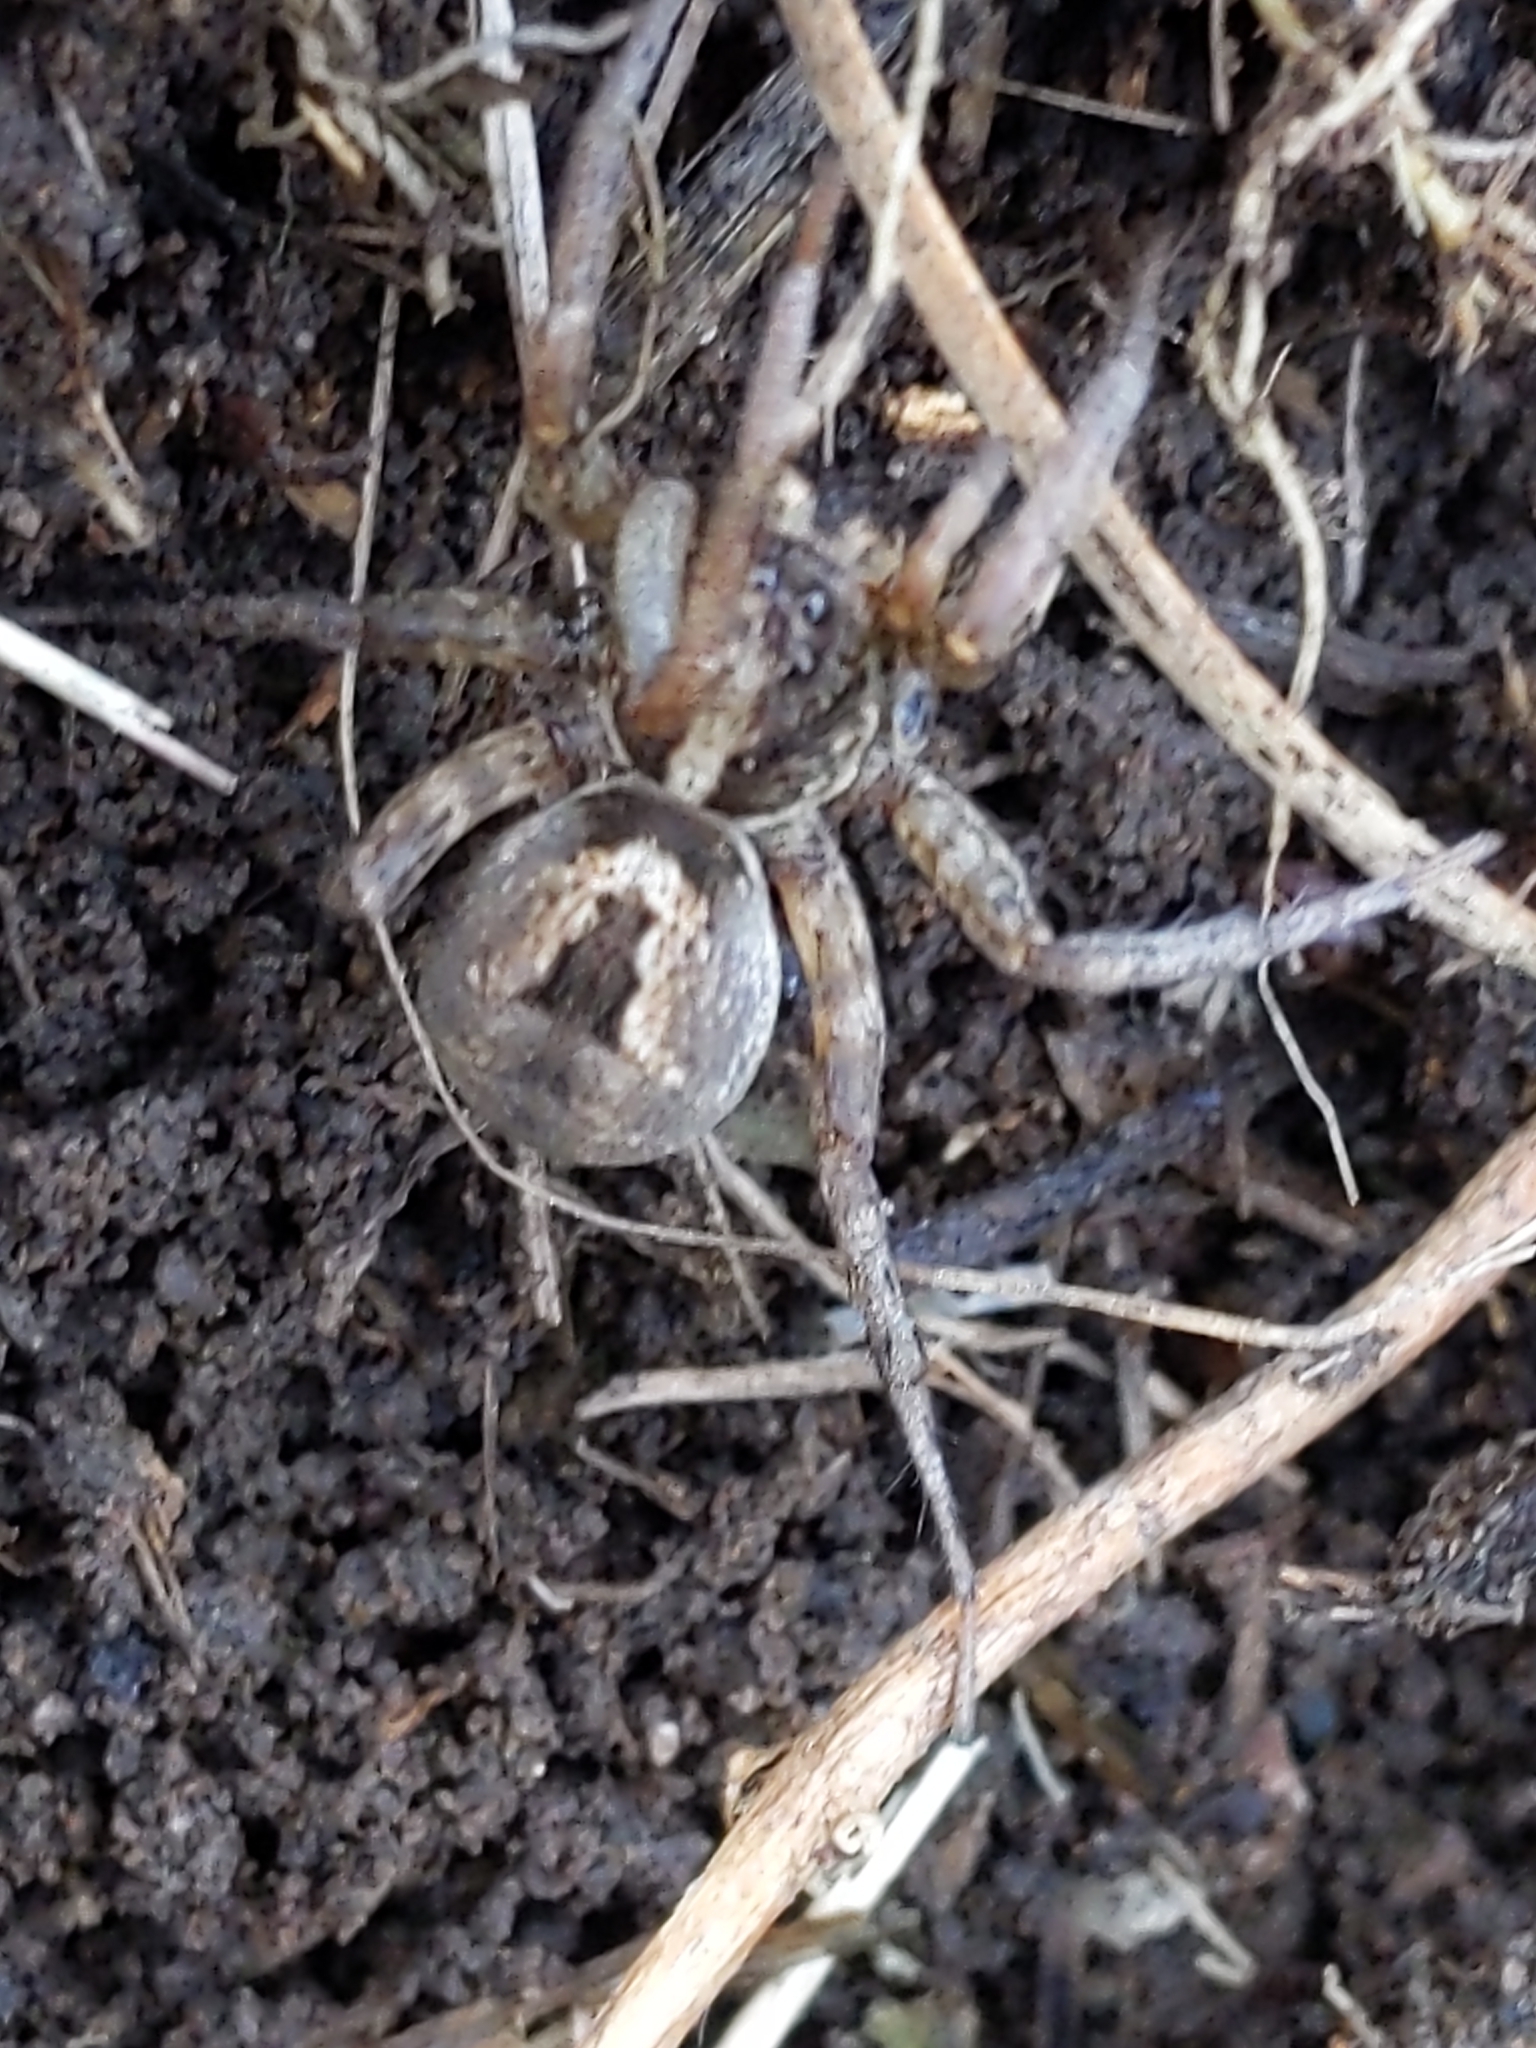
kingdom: Animalia
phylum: Arthropoda
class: Arachnida
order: Araneae
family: Lycosidae
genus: Venator
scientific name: Venator spenceri
